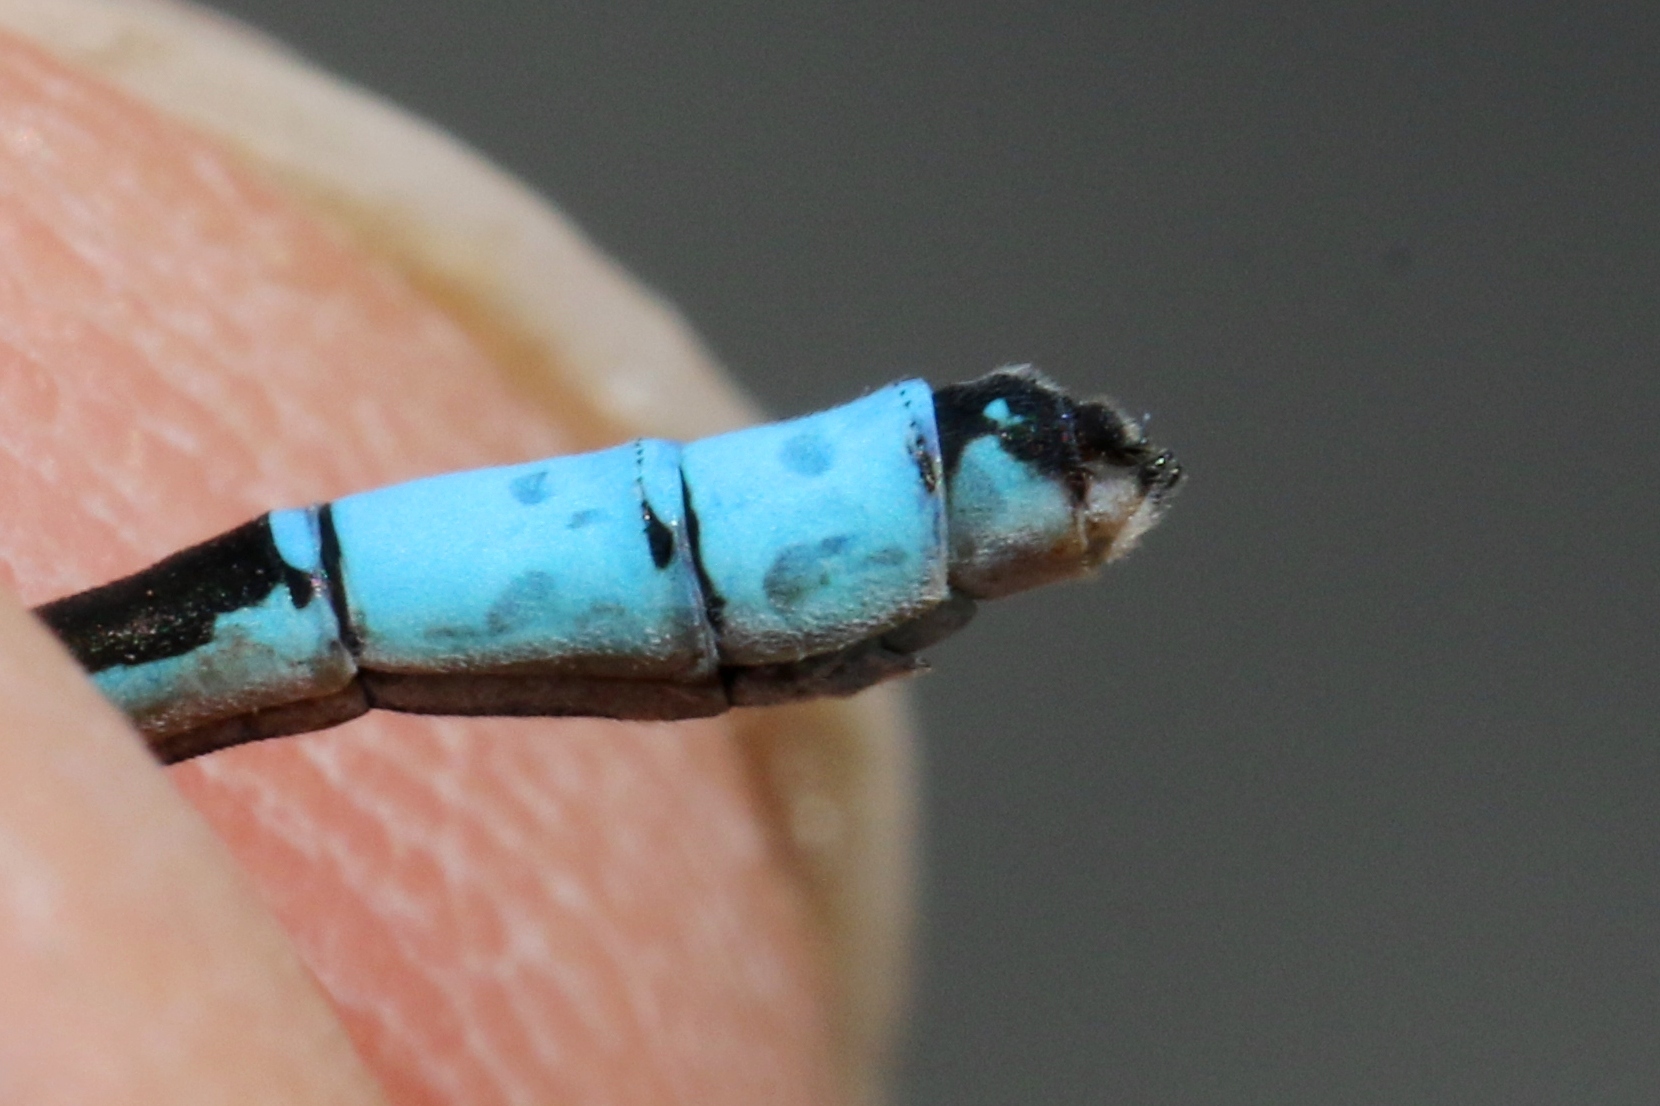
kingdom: Animalia
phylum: Arthropoda
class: Insecta
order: Odonata
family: Coenagrionidae
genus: Enallagma
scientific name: Enallagma vernale
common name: Vernal bluet
